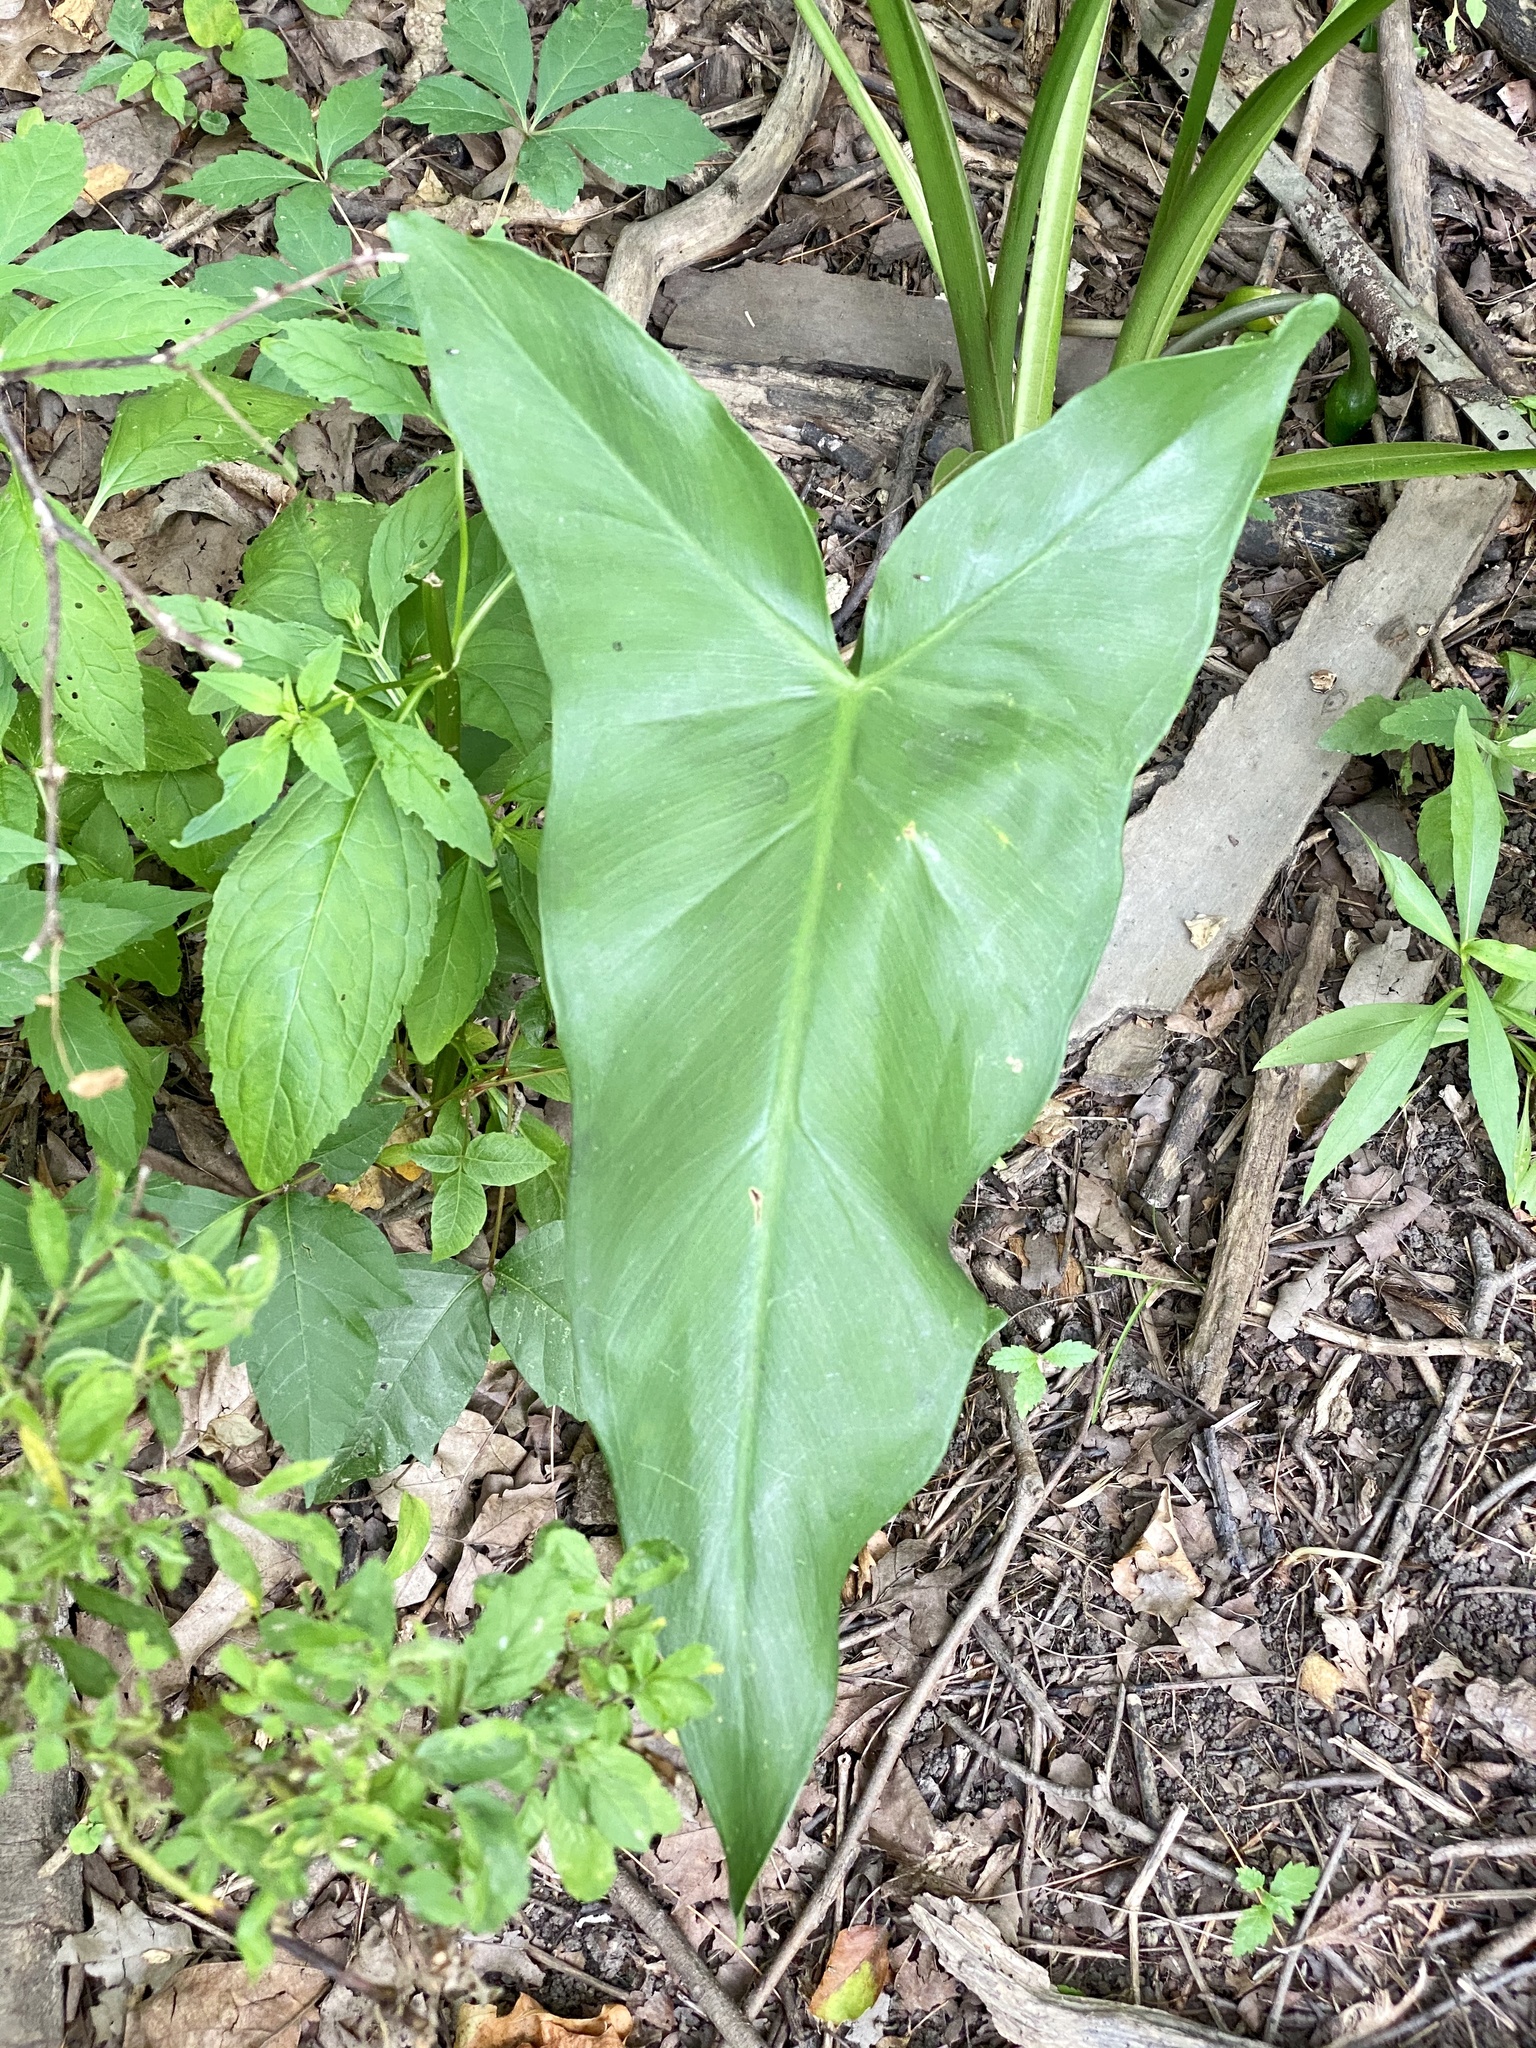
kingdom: Plantae
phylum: Tracheophyta
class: Liliopsida
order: Alismatales
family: Araceae
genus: Peltandra
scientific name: Peltandra virginica
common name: Arrow arum
